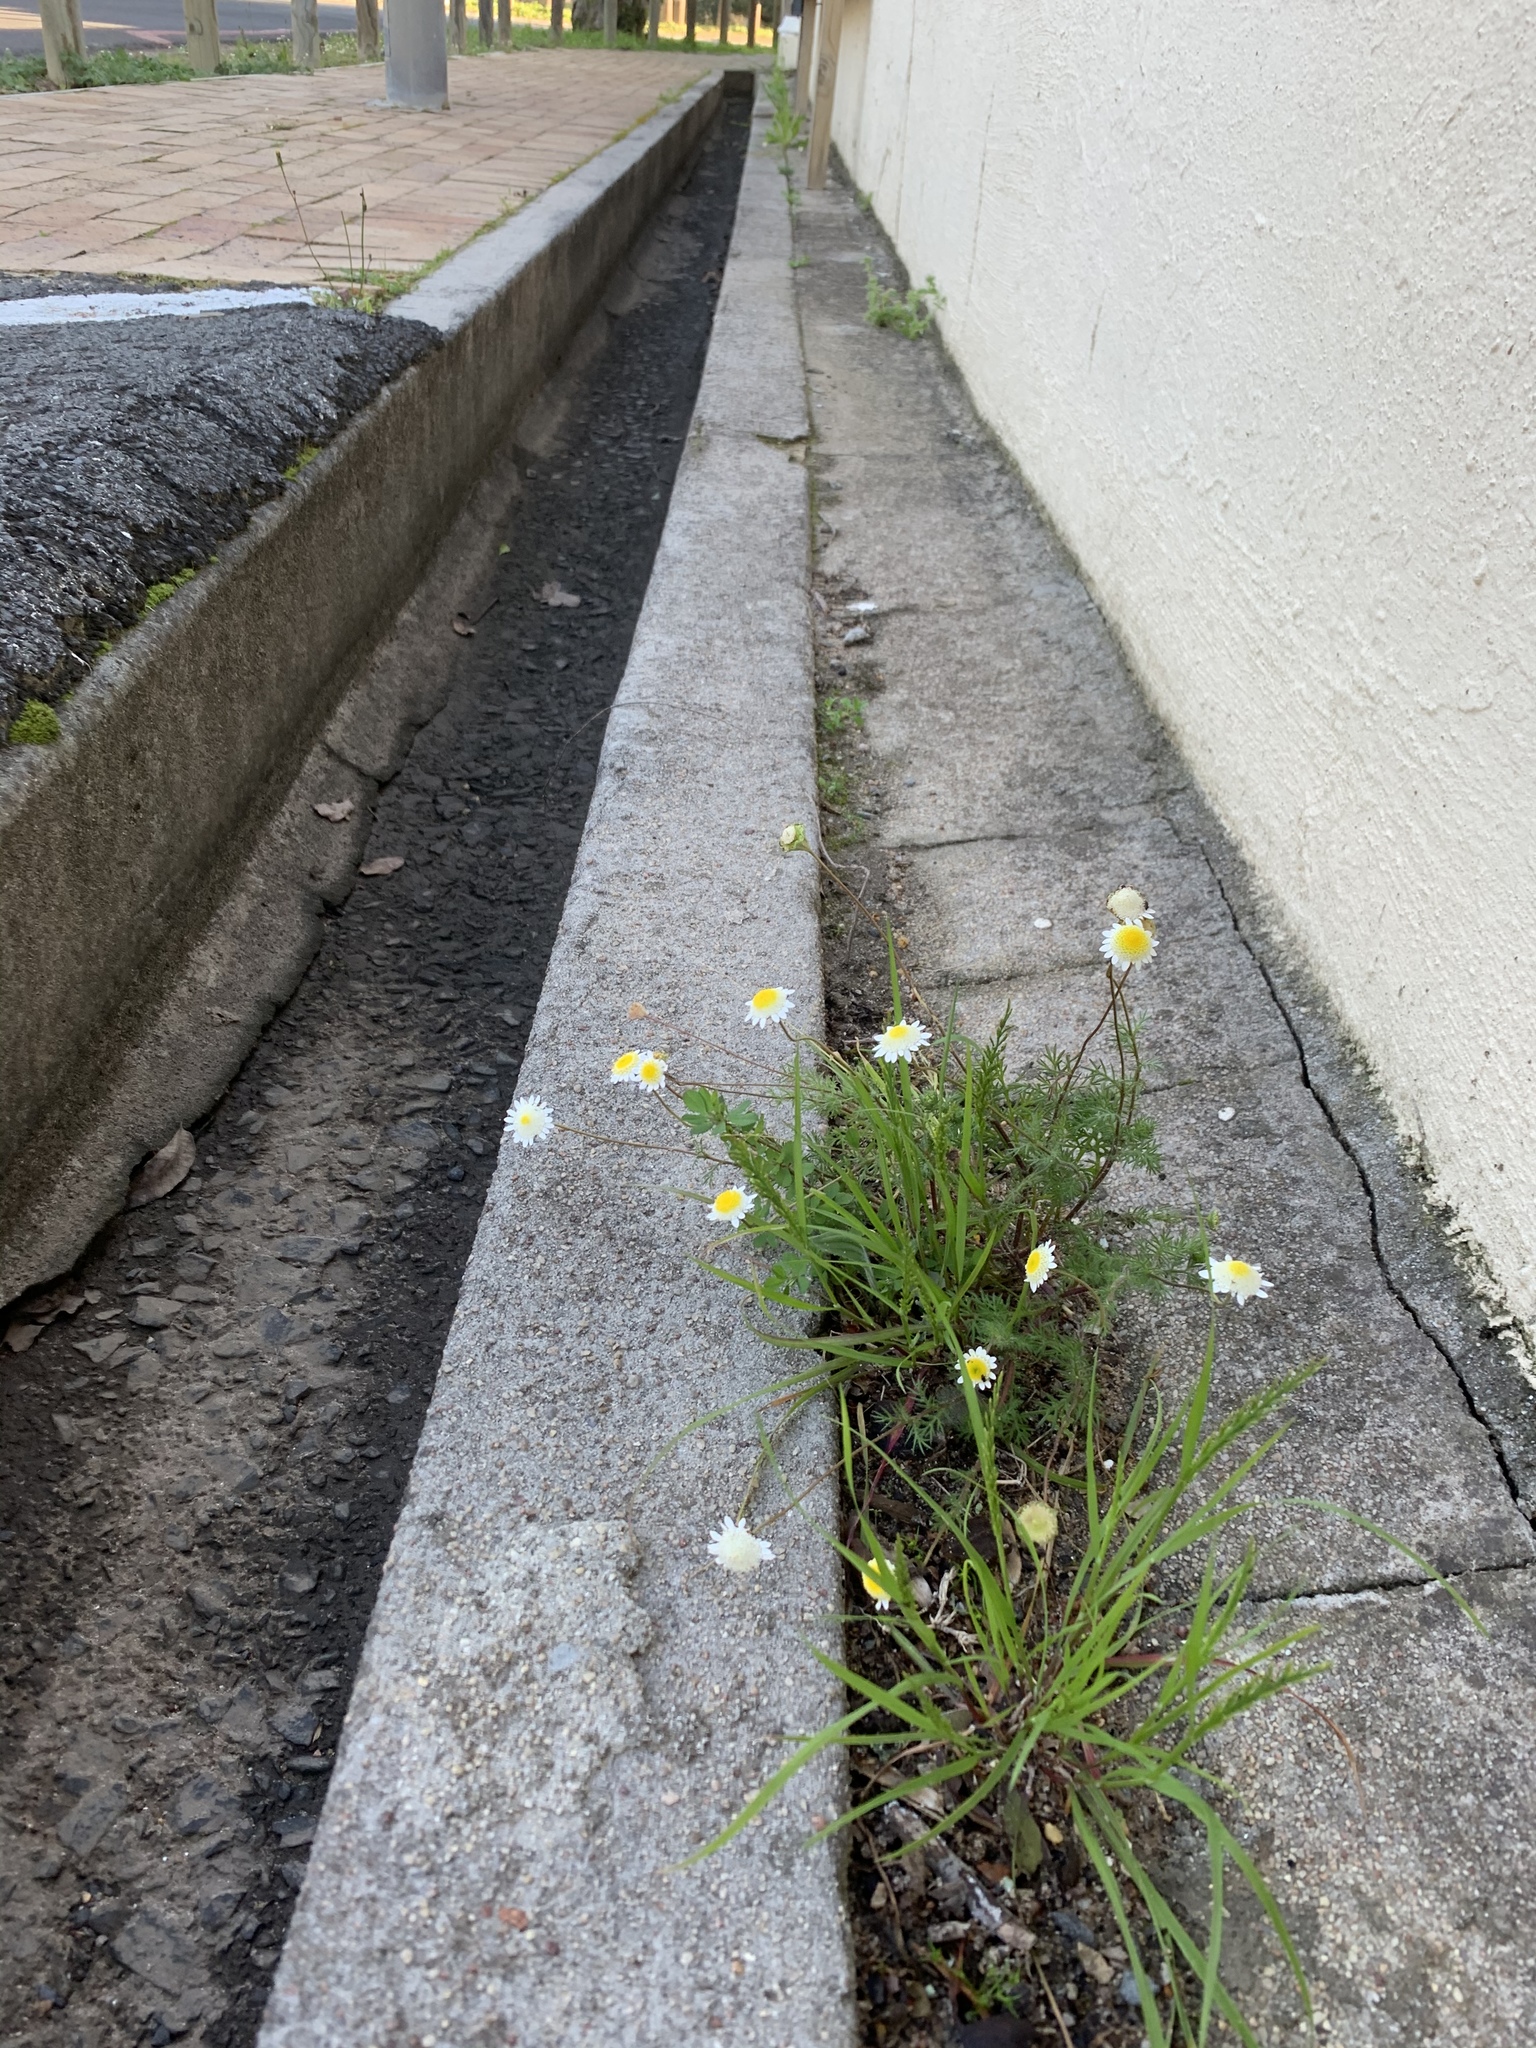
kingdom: Plantae
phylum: Tracheophyta
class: Magnoliopsida
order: Asterales
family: Asteraceae
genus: Cotula
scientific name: Cotula turbinata
